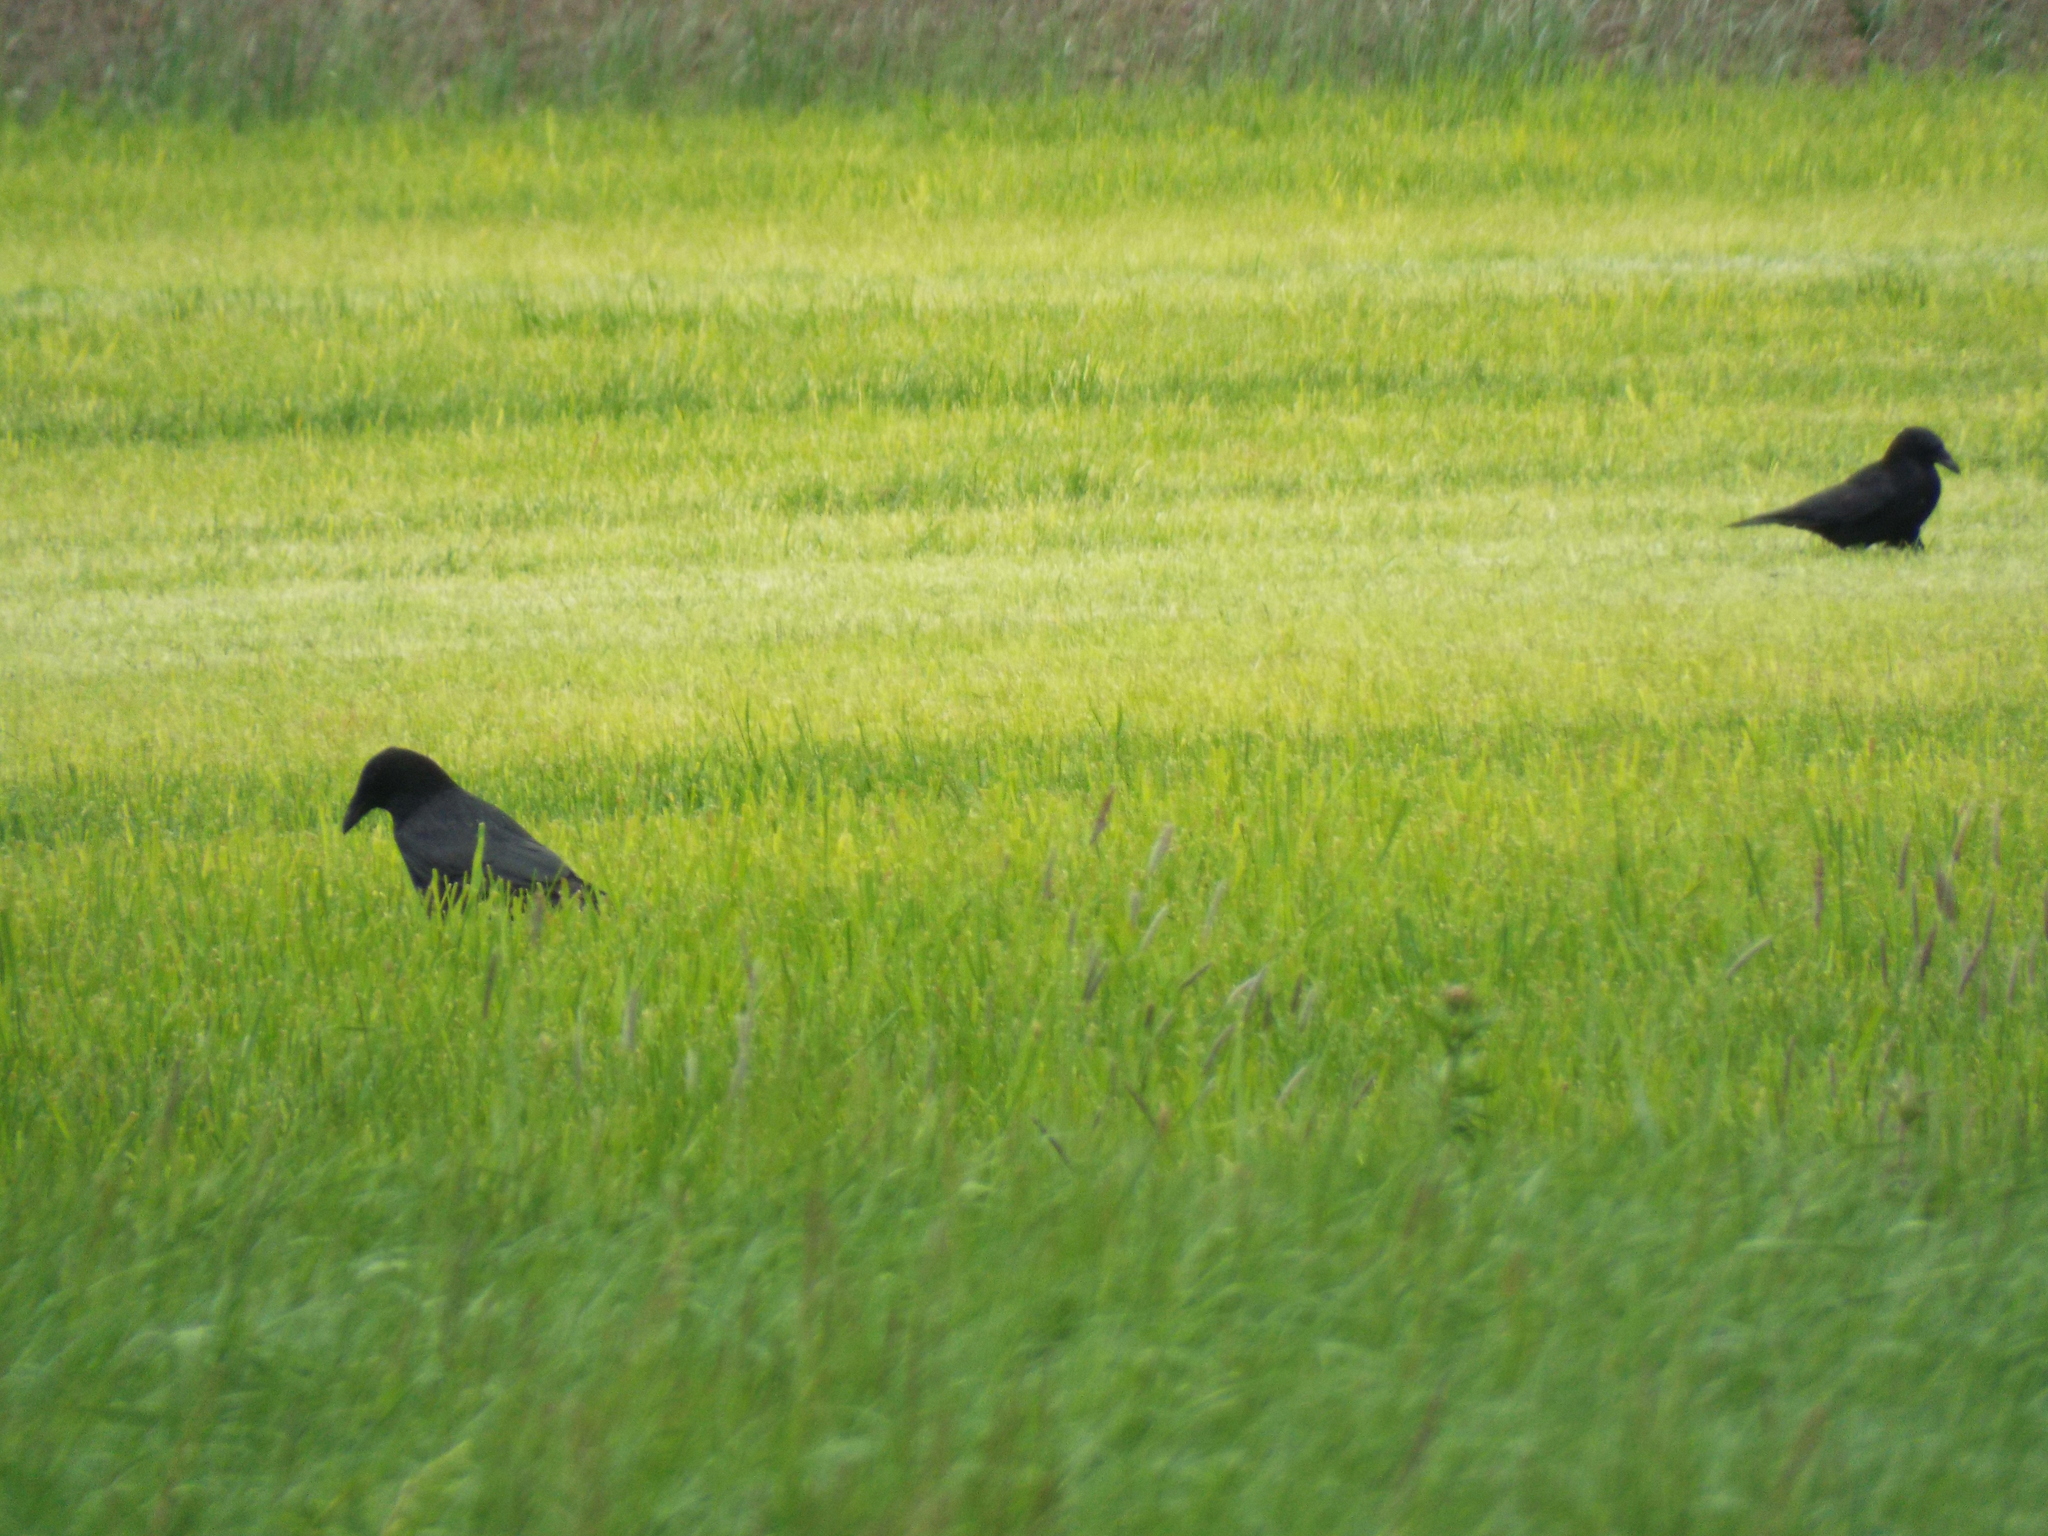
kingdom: Animalia
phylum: Chordata
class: Aves
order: Passeriformes
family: Corvidae
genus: Corvus
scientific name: Corvus corone
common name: Carrion crow
